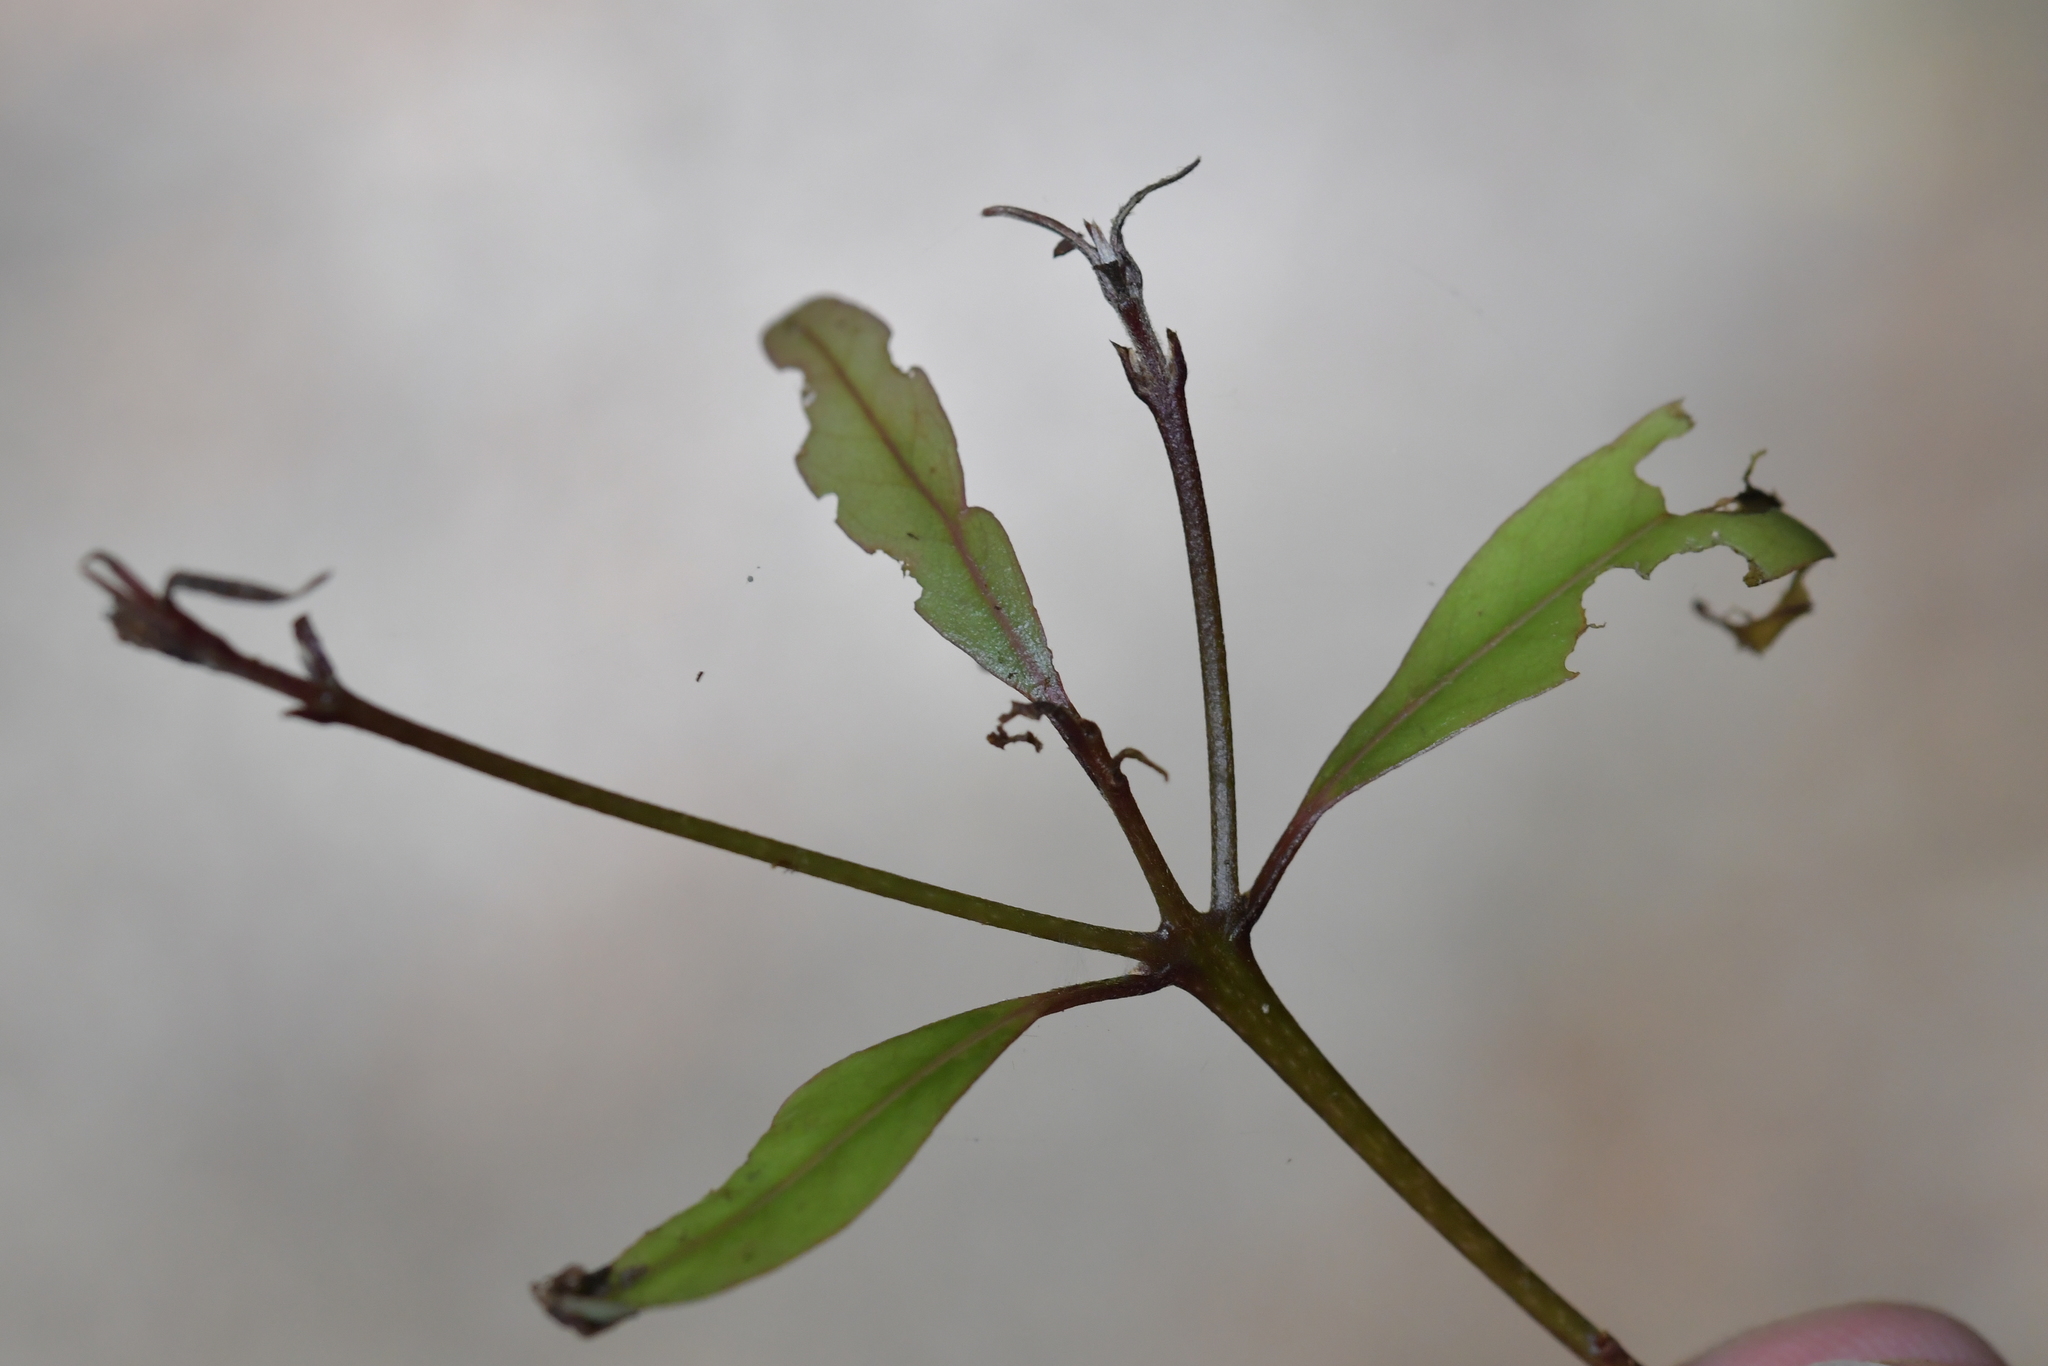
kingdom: Plantae
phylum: Tracheophyta
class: Magnoliopsida
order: Laurales
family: Lauraceae
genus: Beilschmiedia
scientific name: Beilschmiedia tawa
